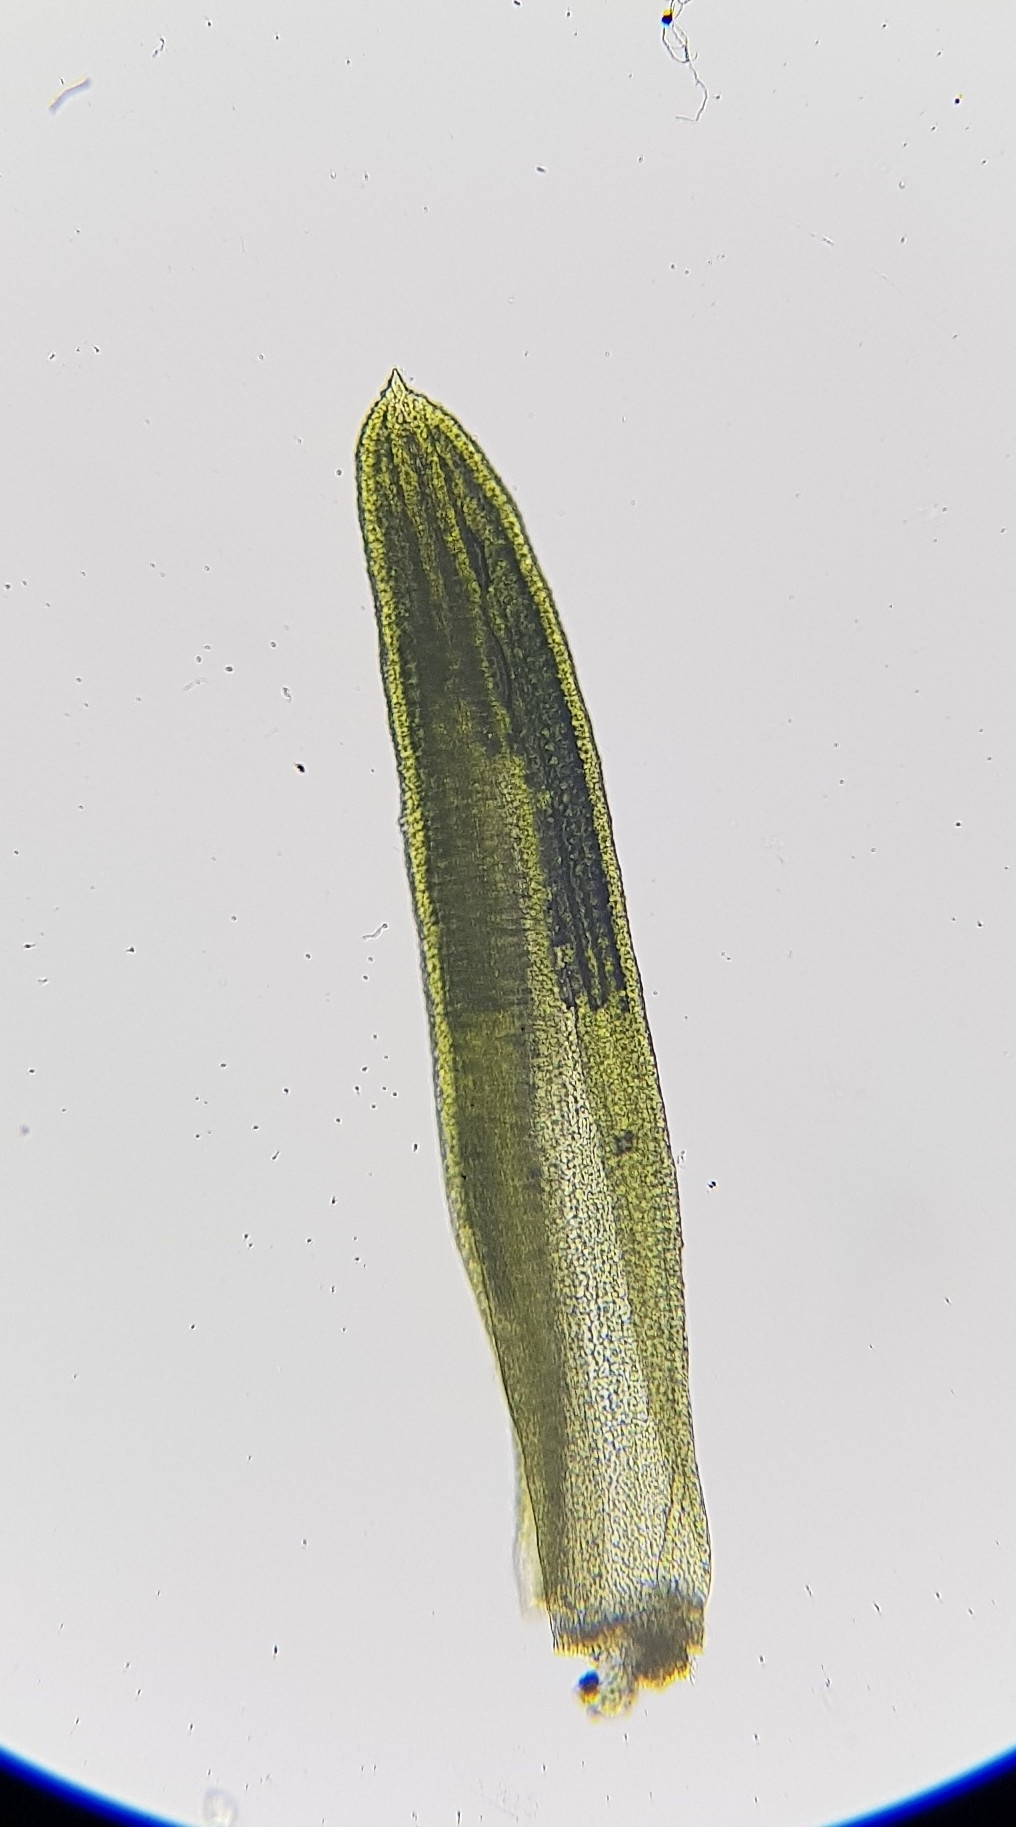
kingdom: Plantae
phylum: Bryophyta
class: Bryopsida
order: Pottiales
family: Pottiaceae
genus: Pseudocrossidium
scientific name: Pseudocrossidium revolutum
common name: Revolute beard-moss
